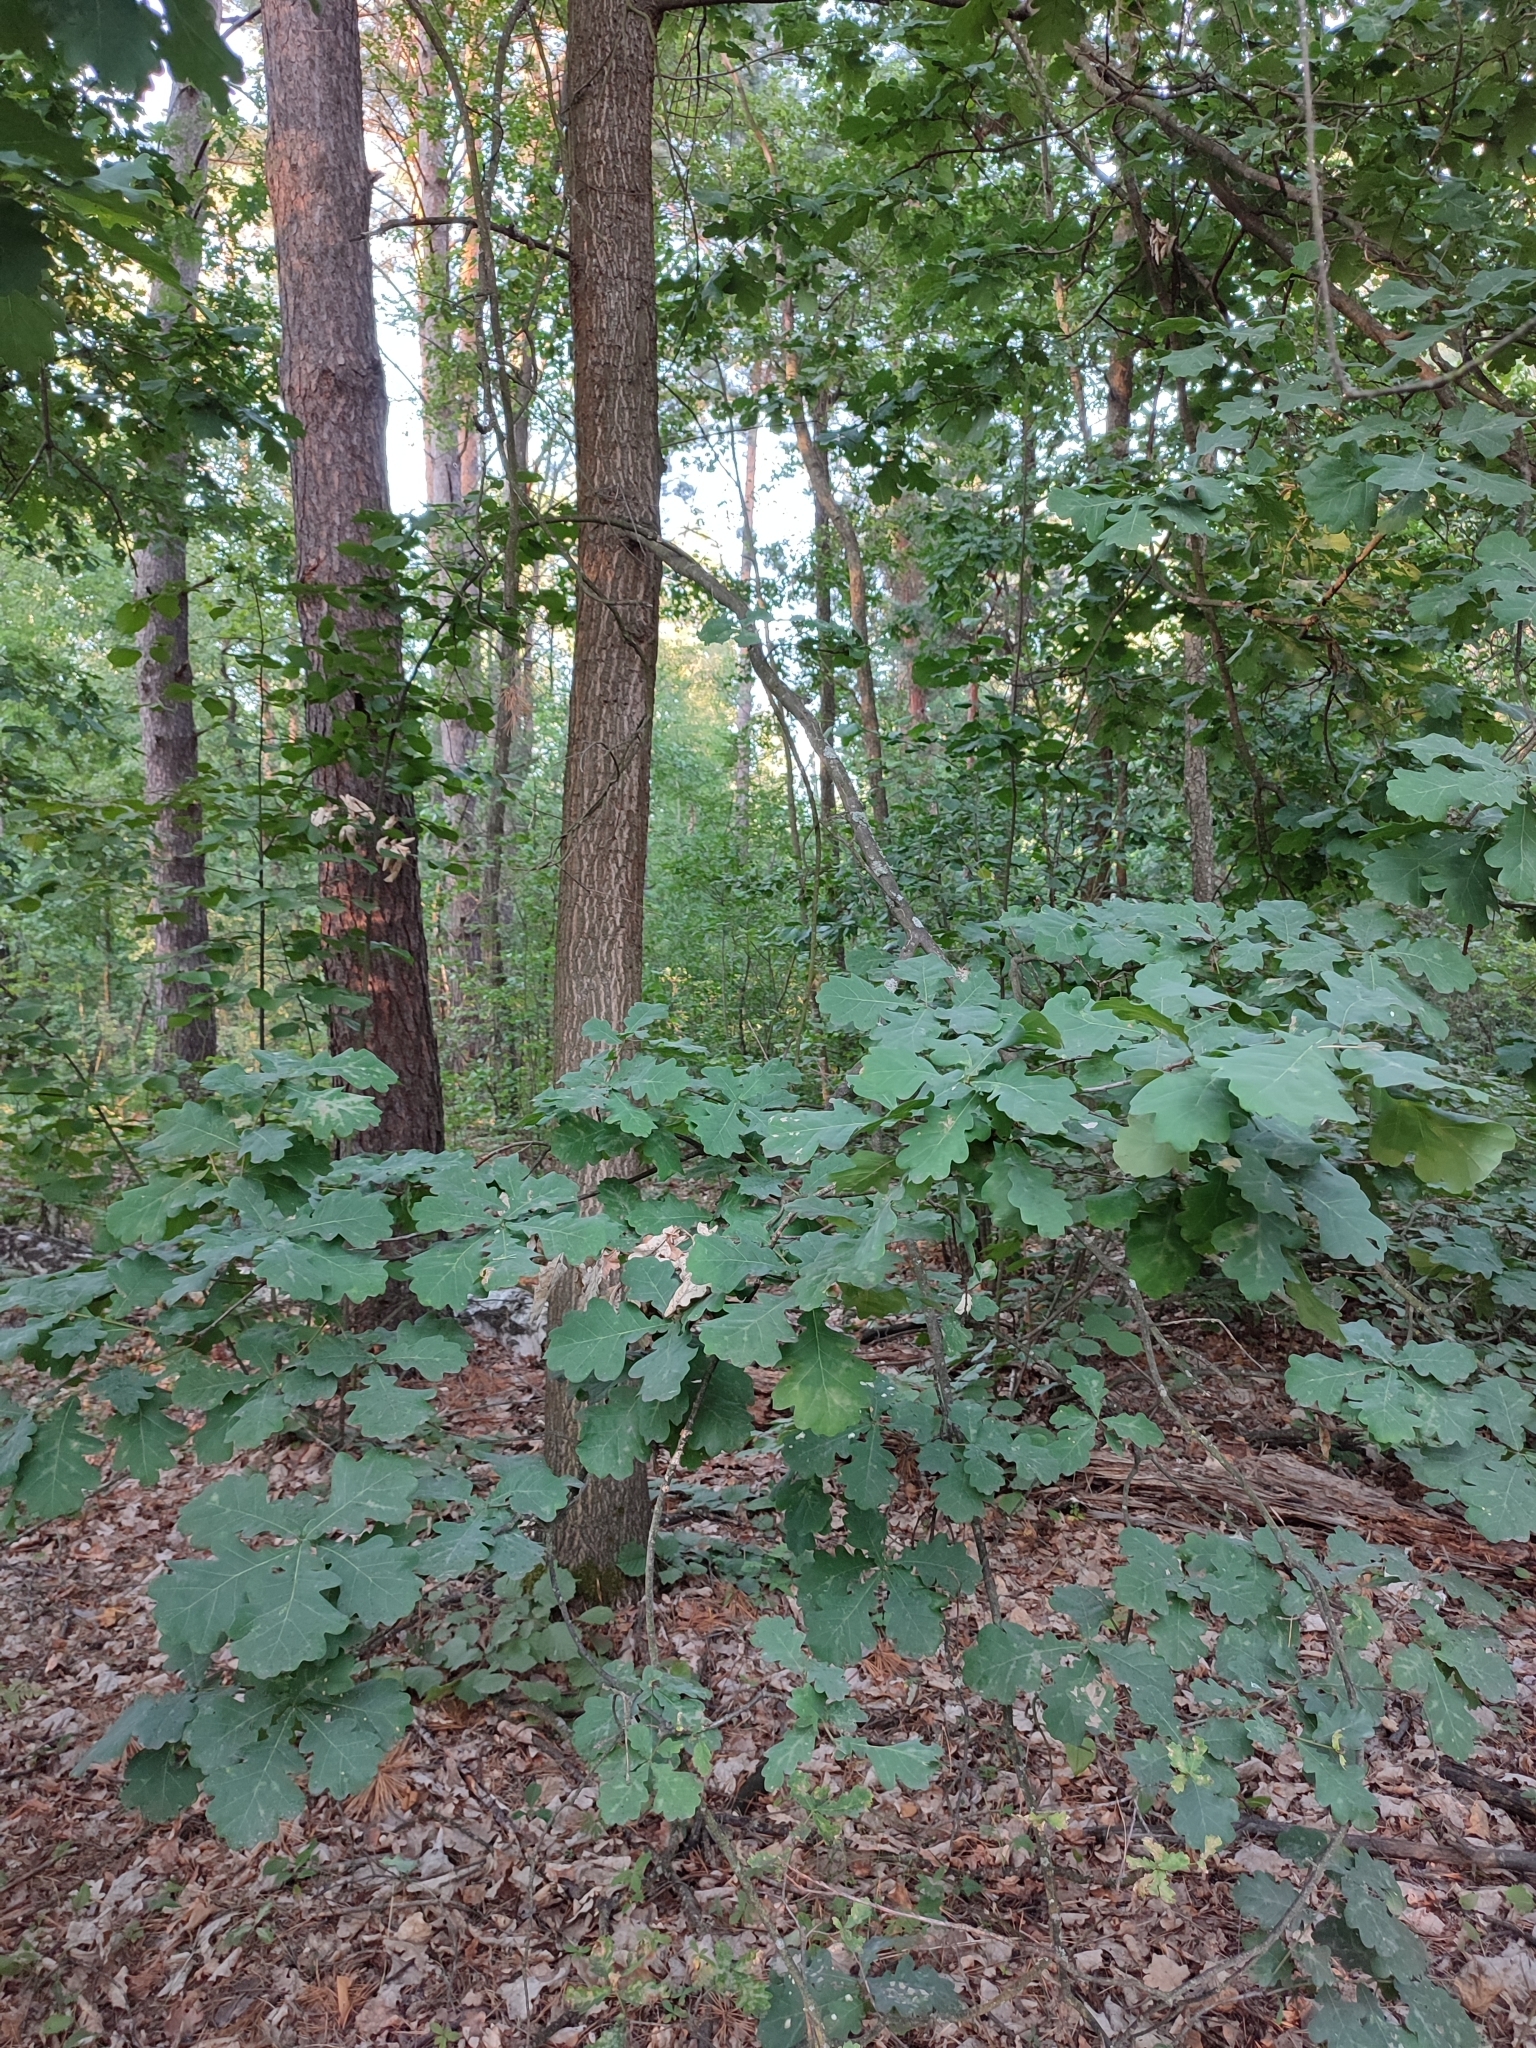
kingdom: Plantae
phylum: Tracheophyta
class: Magnoliopsida
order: Fagales
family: Fagaceae
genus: Quercus
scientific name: Quercus robur
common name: Pedunculate oak
